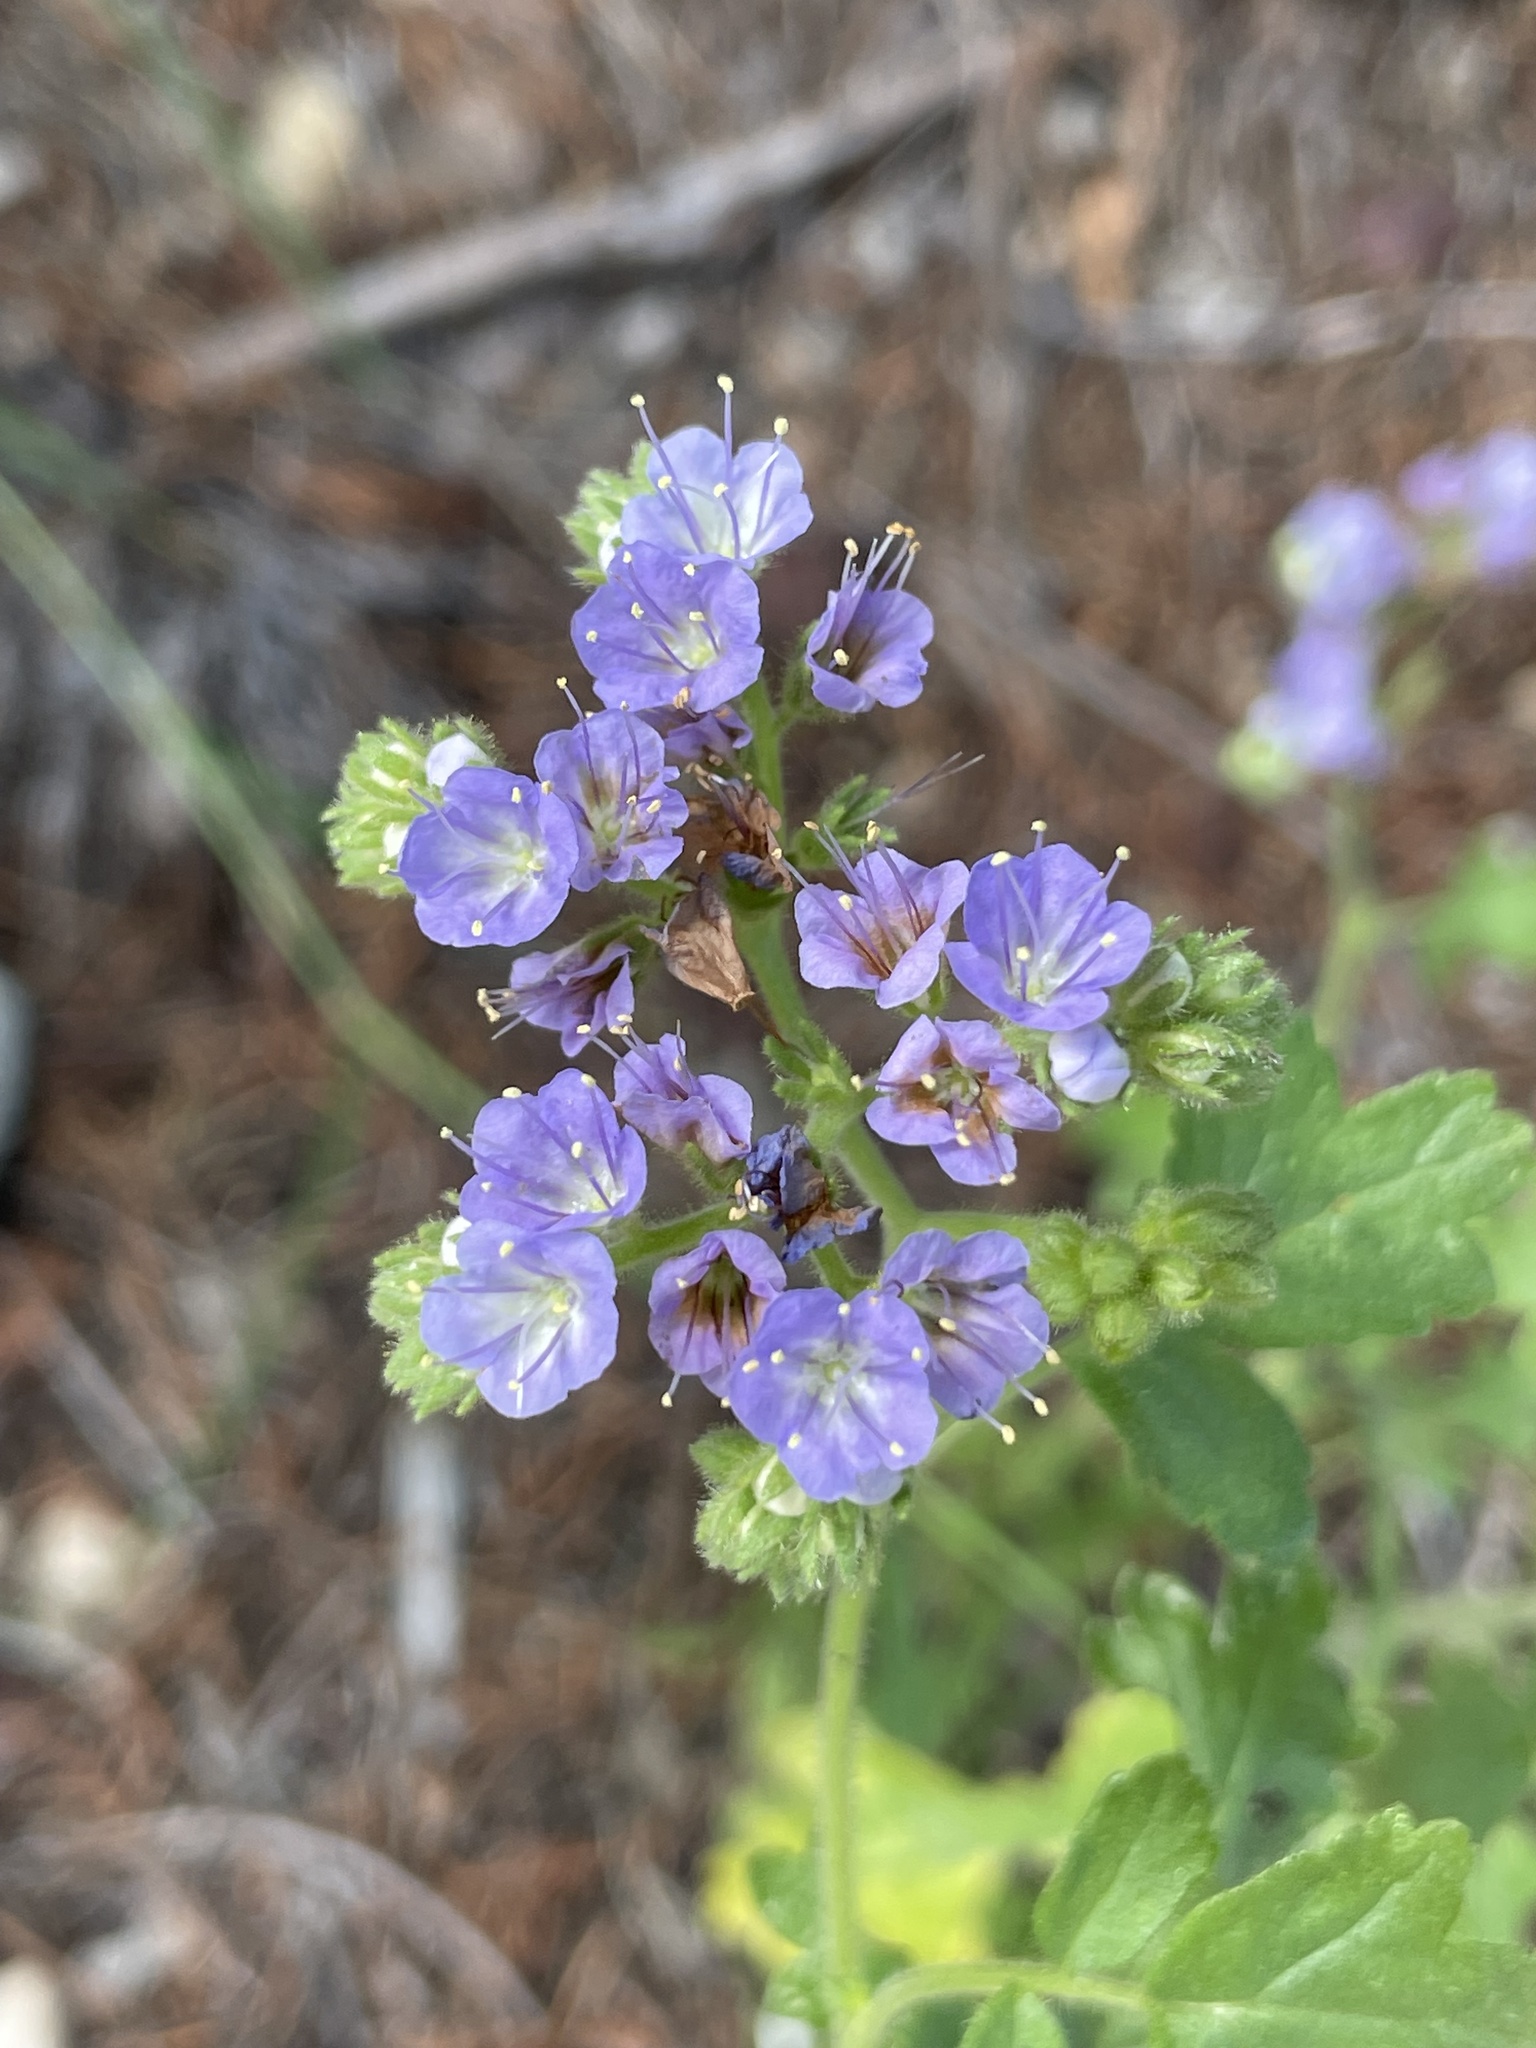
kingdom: Plantae
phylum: Tracheophyta
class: Magnoliopsida
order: Boraginales
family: Hydrophyllaceae
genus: Phacelia
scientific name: Phacelia congesta
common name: Blue curls
